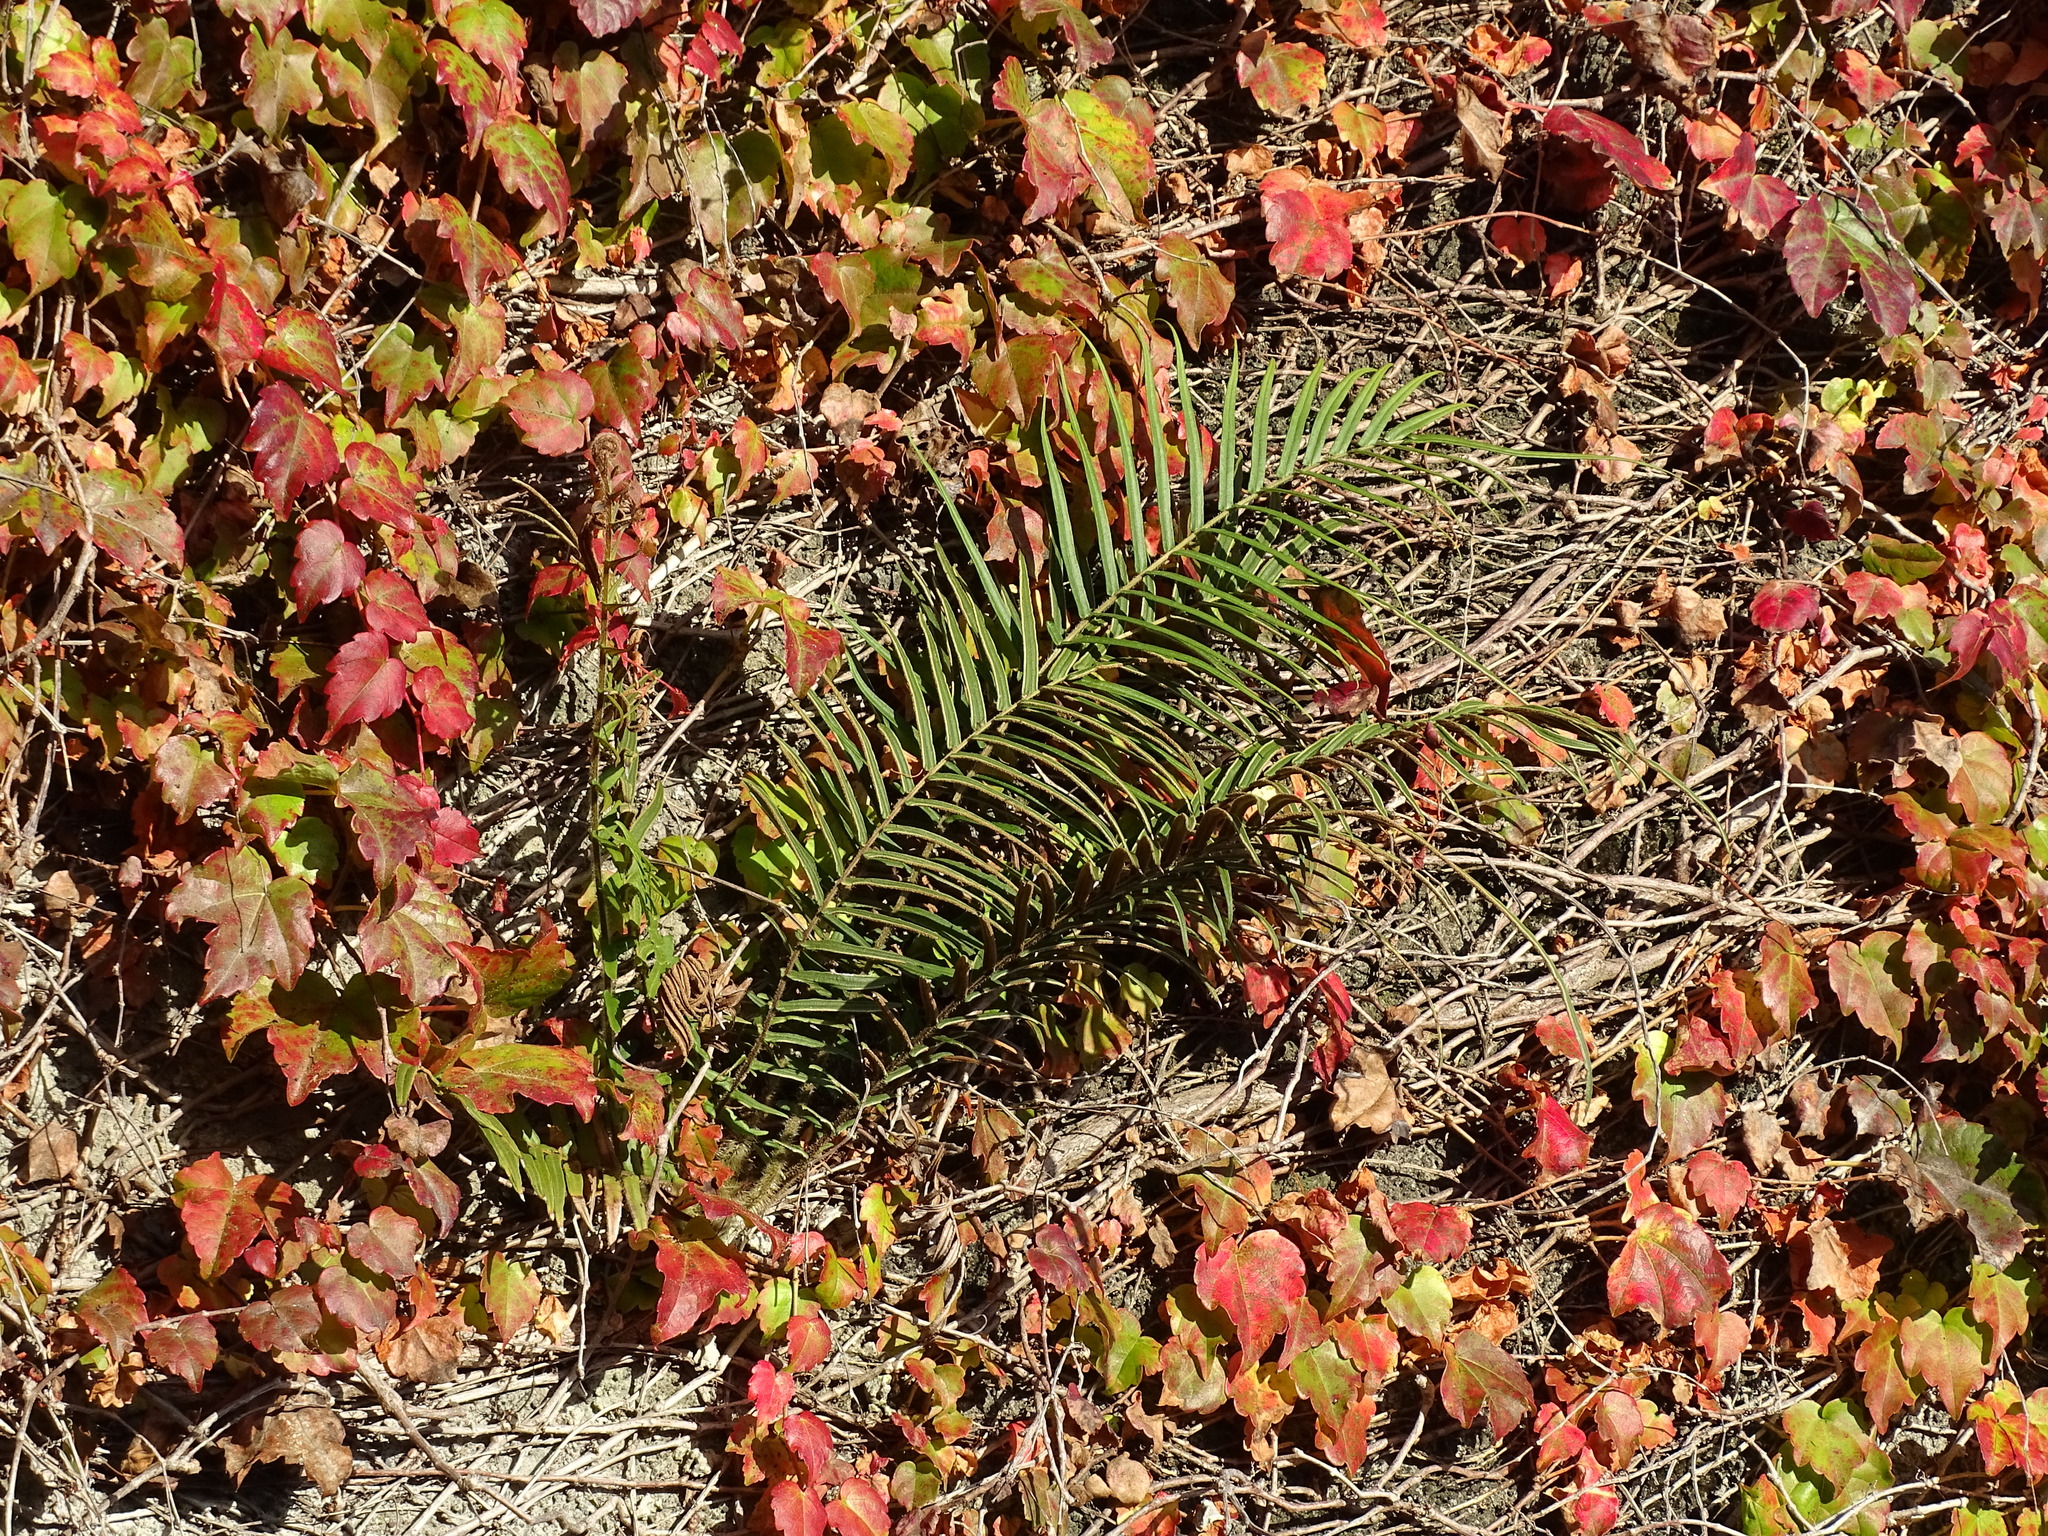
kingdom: Plantae
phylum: Tracheophyta
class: Polypodiopsida
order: Polypodiales
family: Pteridaceae
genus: Pteris
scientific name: Pteris vittata
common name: Ladder brake
